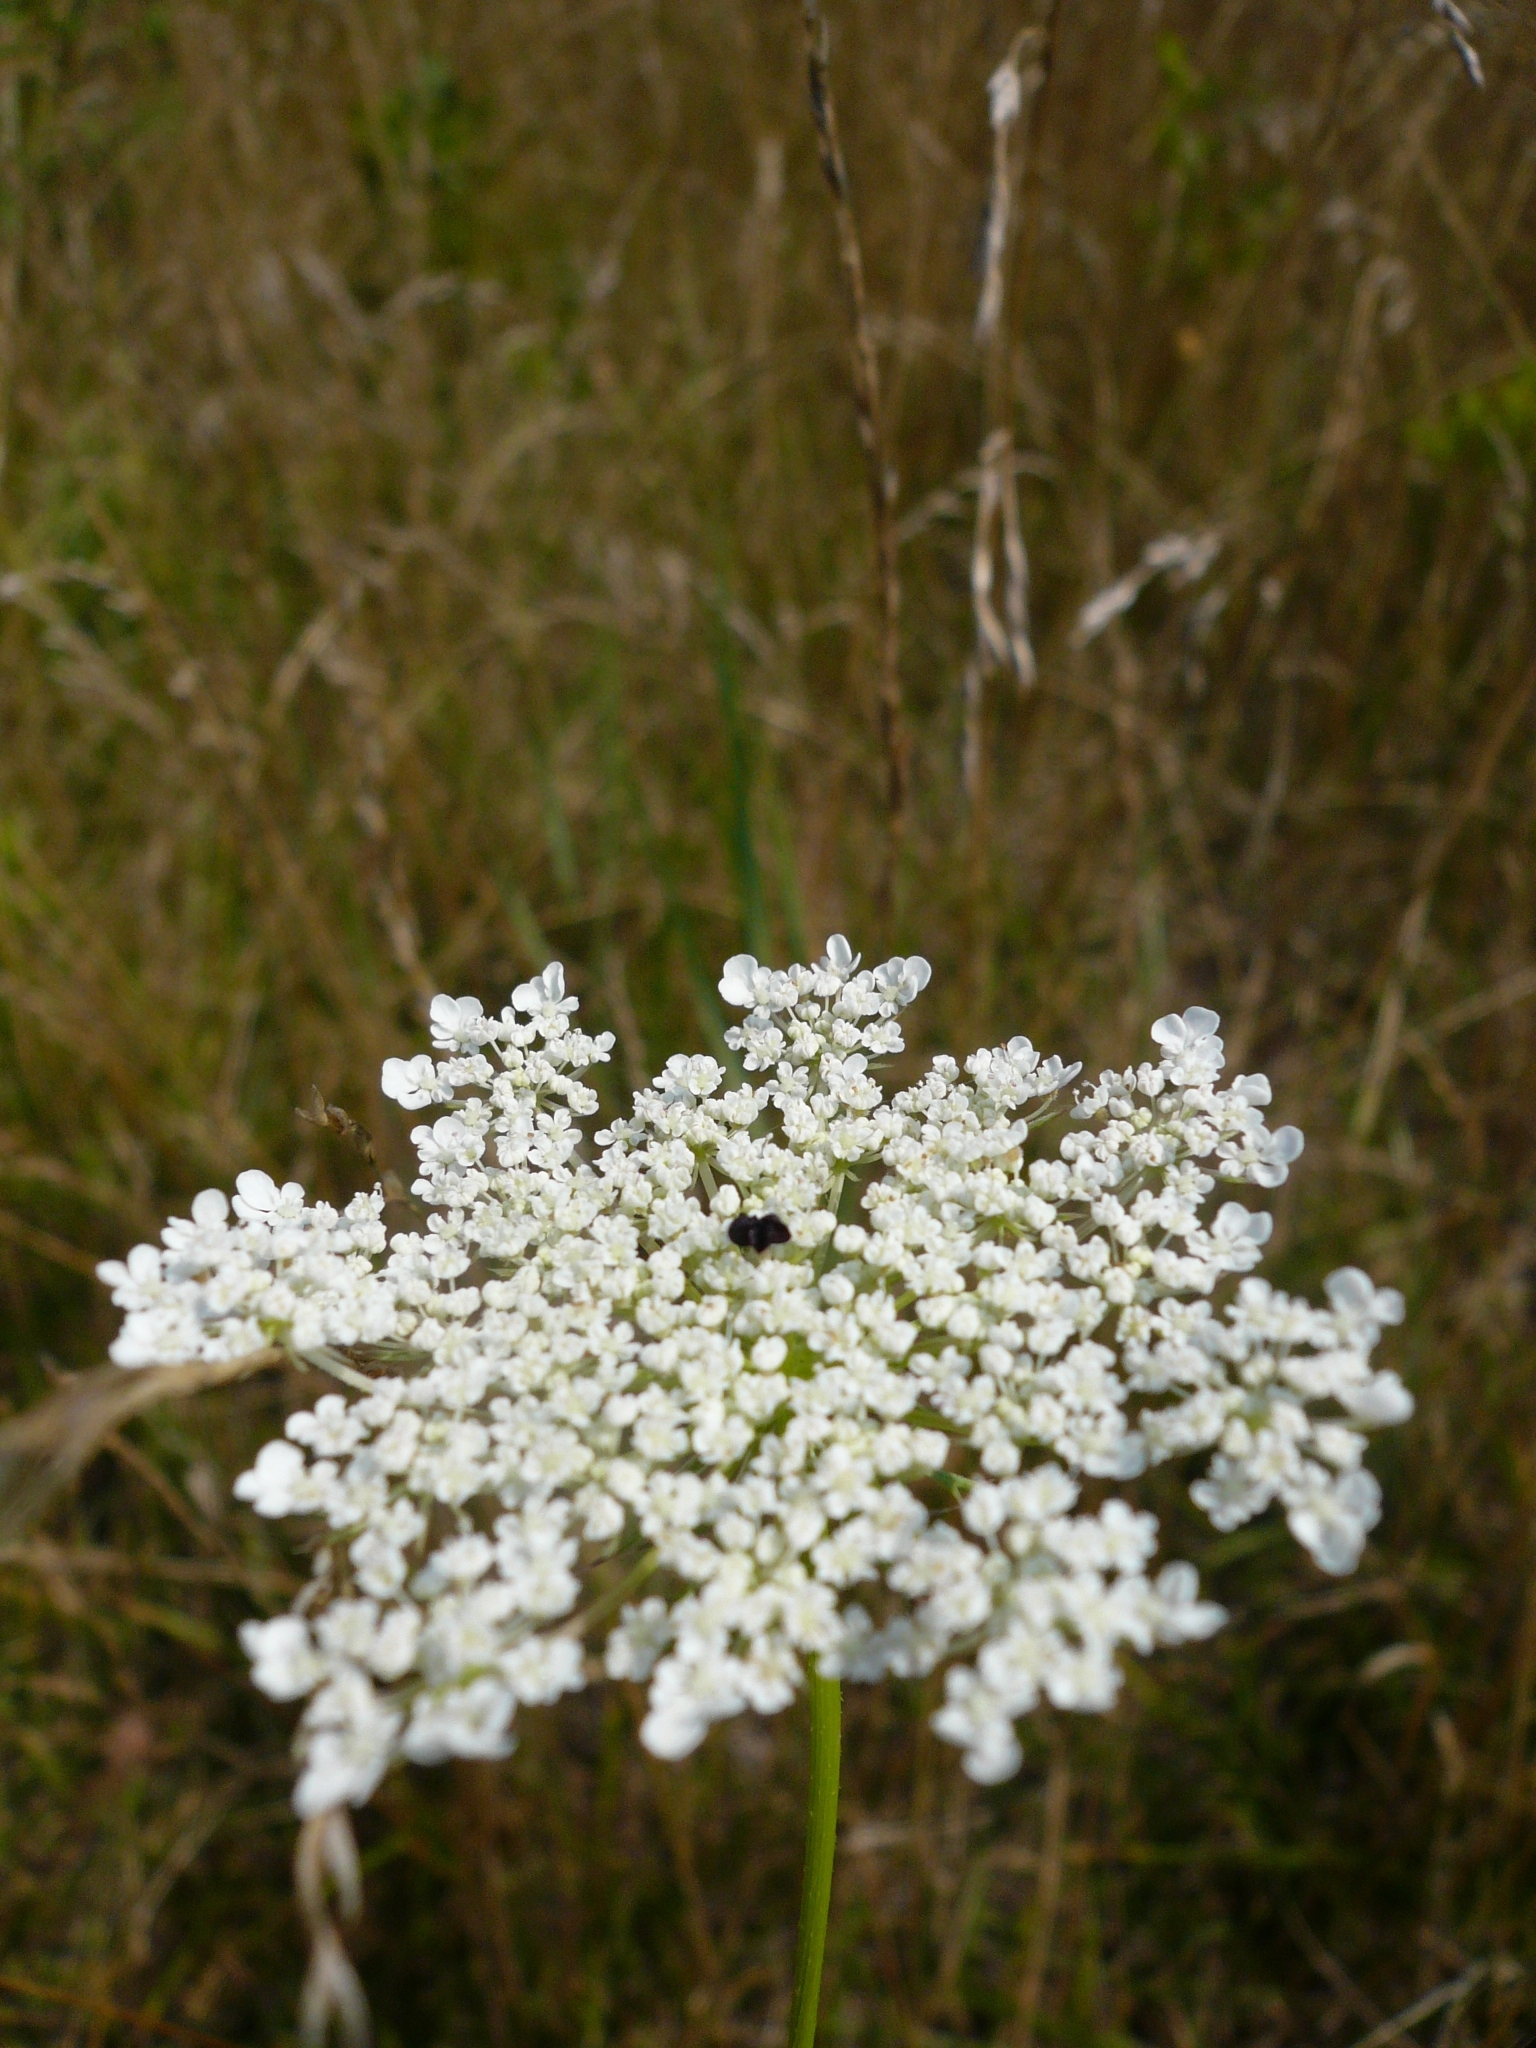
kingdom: Plantae
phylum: Tracheophyta
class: Magnoliopsida
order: Apiales
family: Apiaceae
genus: Daucus
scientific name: Daucus carota
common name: Wild carrot
